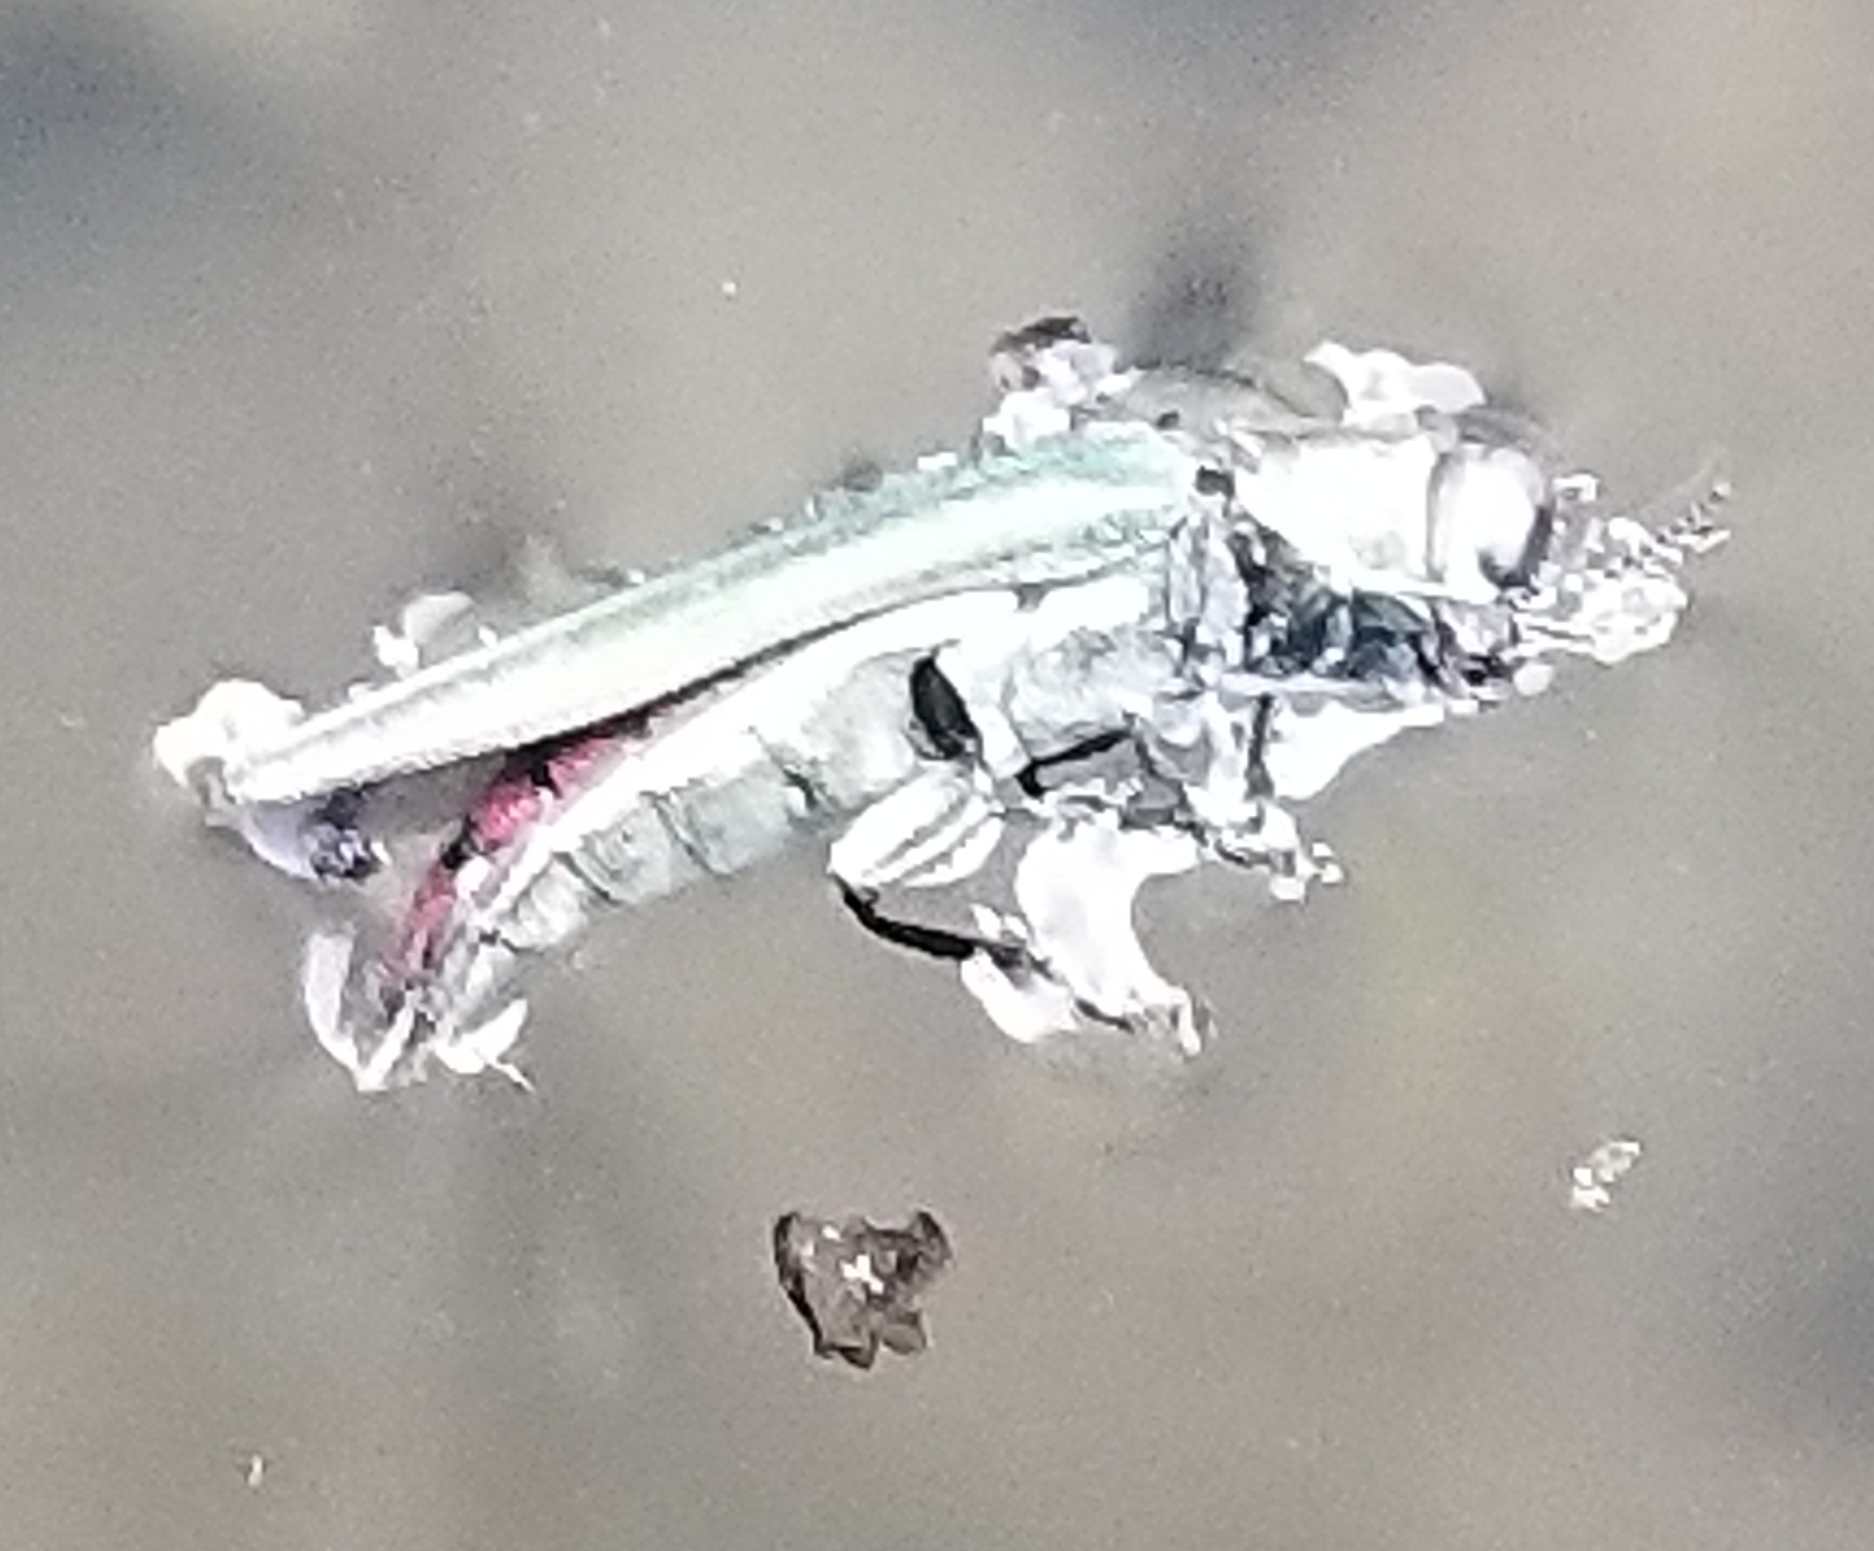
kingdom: Animalia
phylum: Arthropoda
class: Insecta
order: Coleoptera
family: Buprestidae
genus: Agrilus
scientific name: Agrilus planipennis
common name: Emerald ash borer
